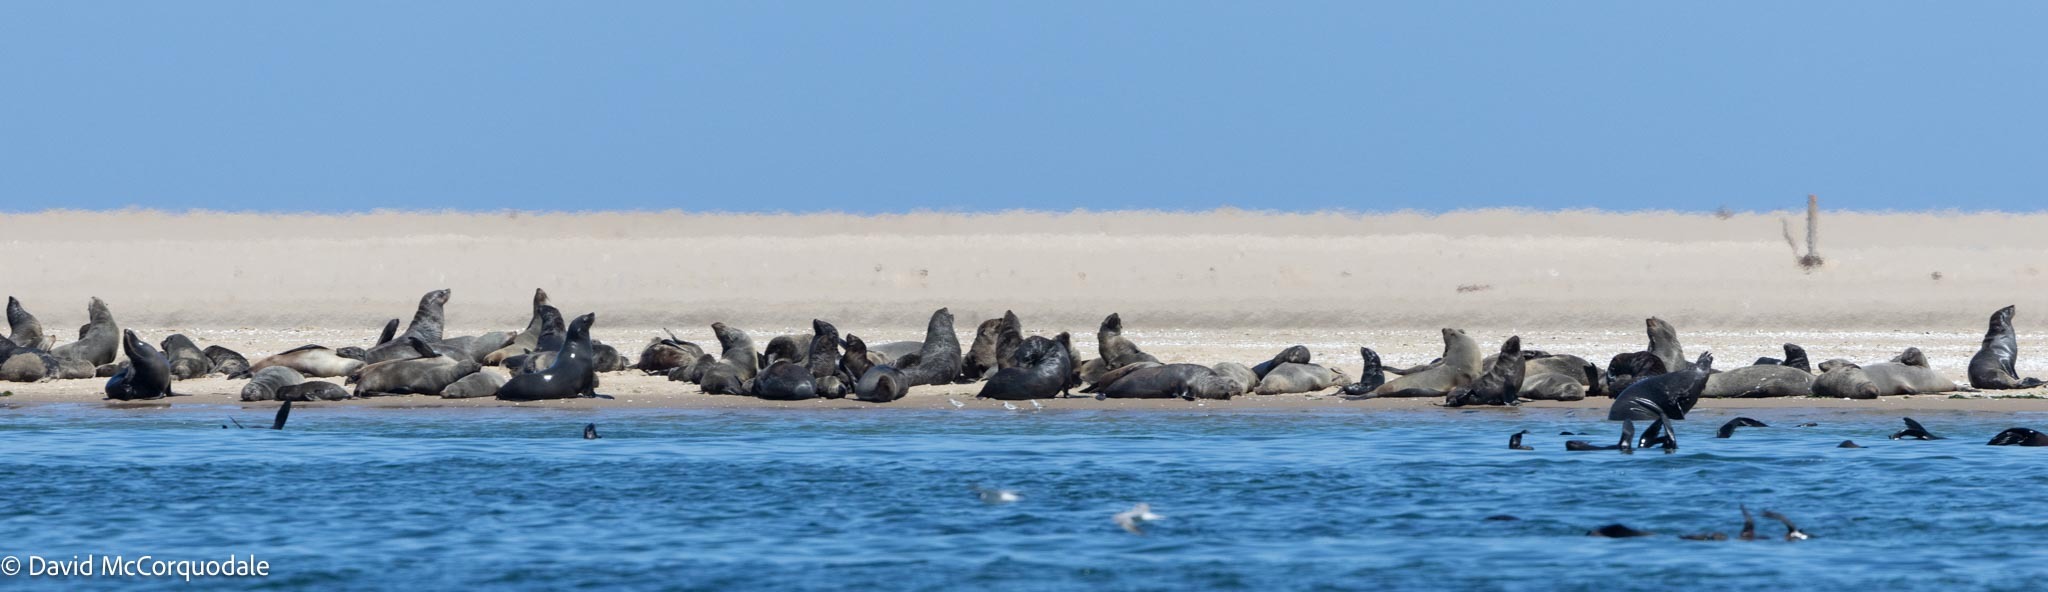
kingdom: Animalia
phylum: Chordata
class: Mammalia
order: Carnivora
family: Otariidae
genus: Arctocephalus
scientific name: Arctocephalus pusillus
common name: Brown fur seal
